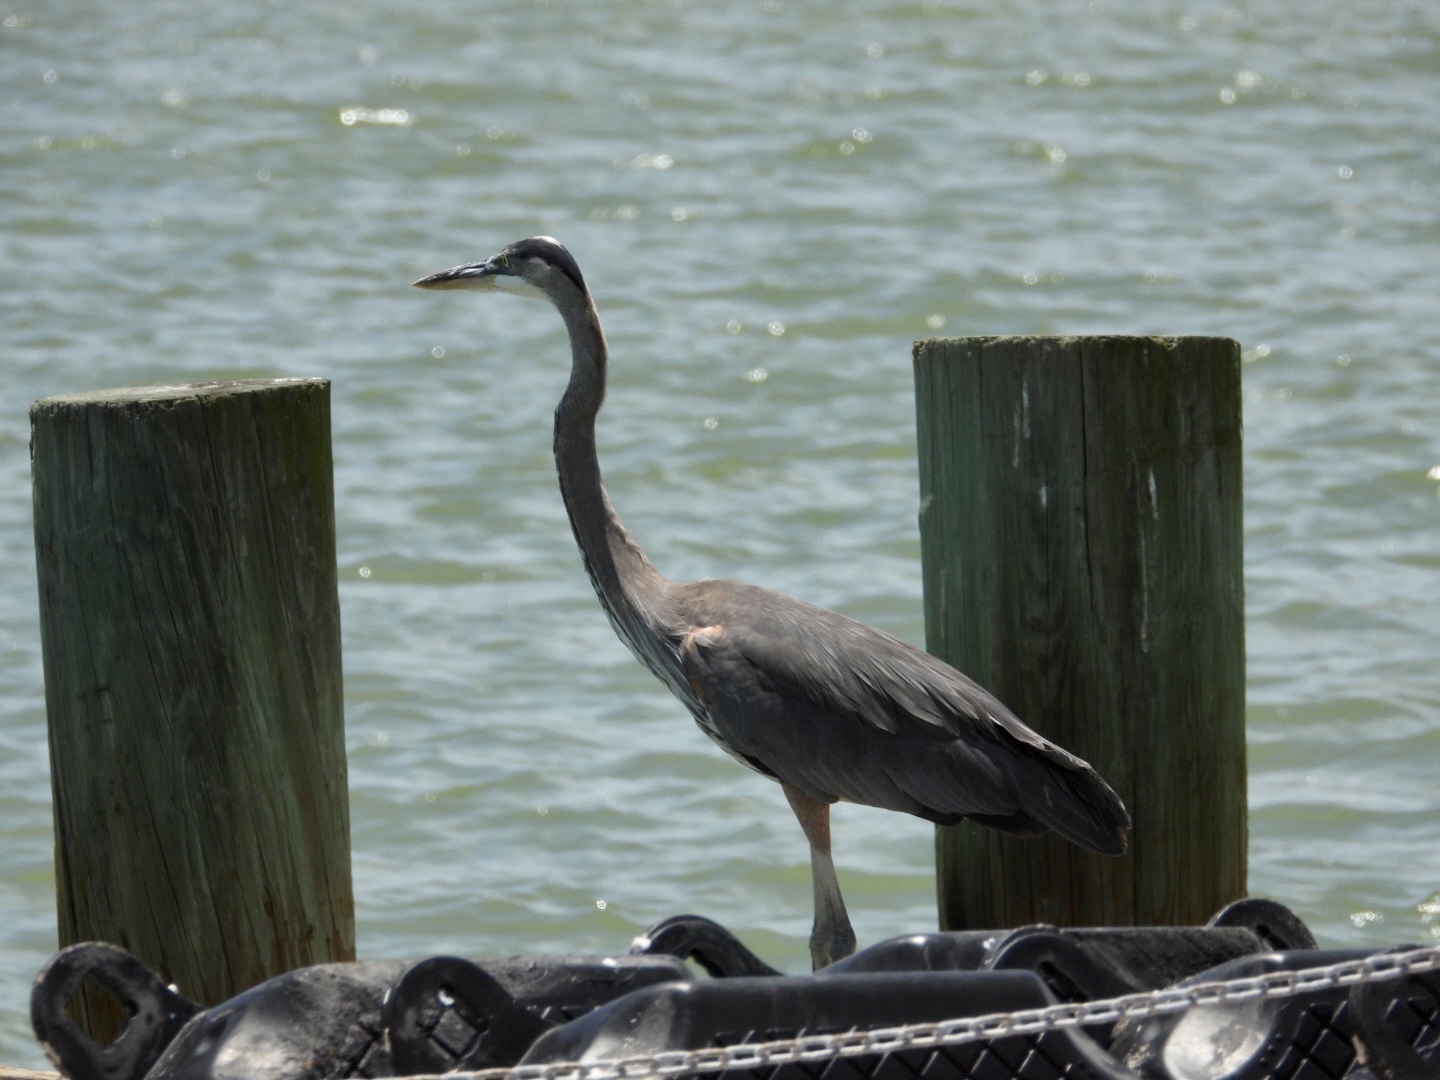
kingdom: Animalia
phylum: Chordata
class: Aves
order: Pelecaniformes
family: Ardeidae
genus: Ardea
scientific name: Ardea herodias
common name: Great blue heron
